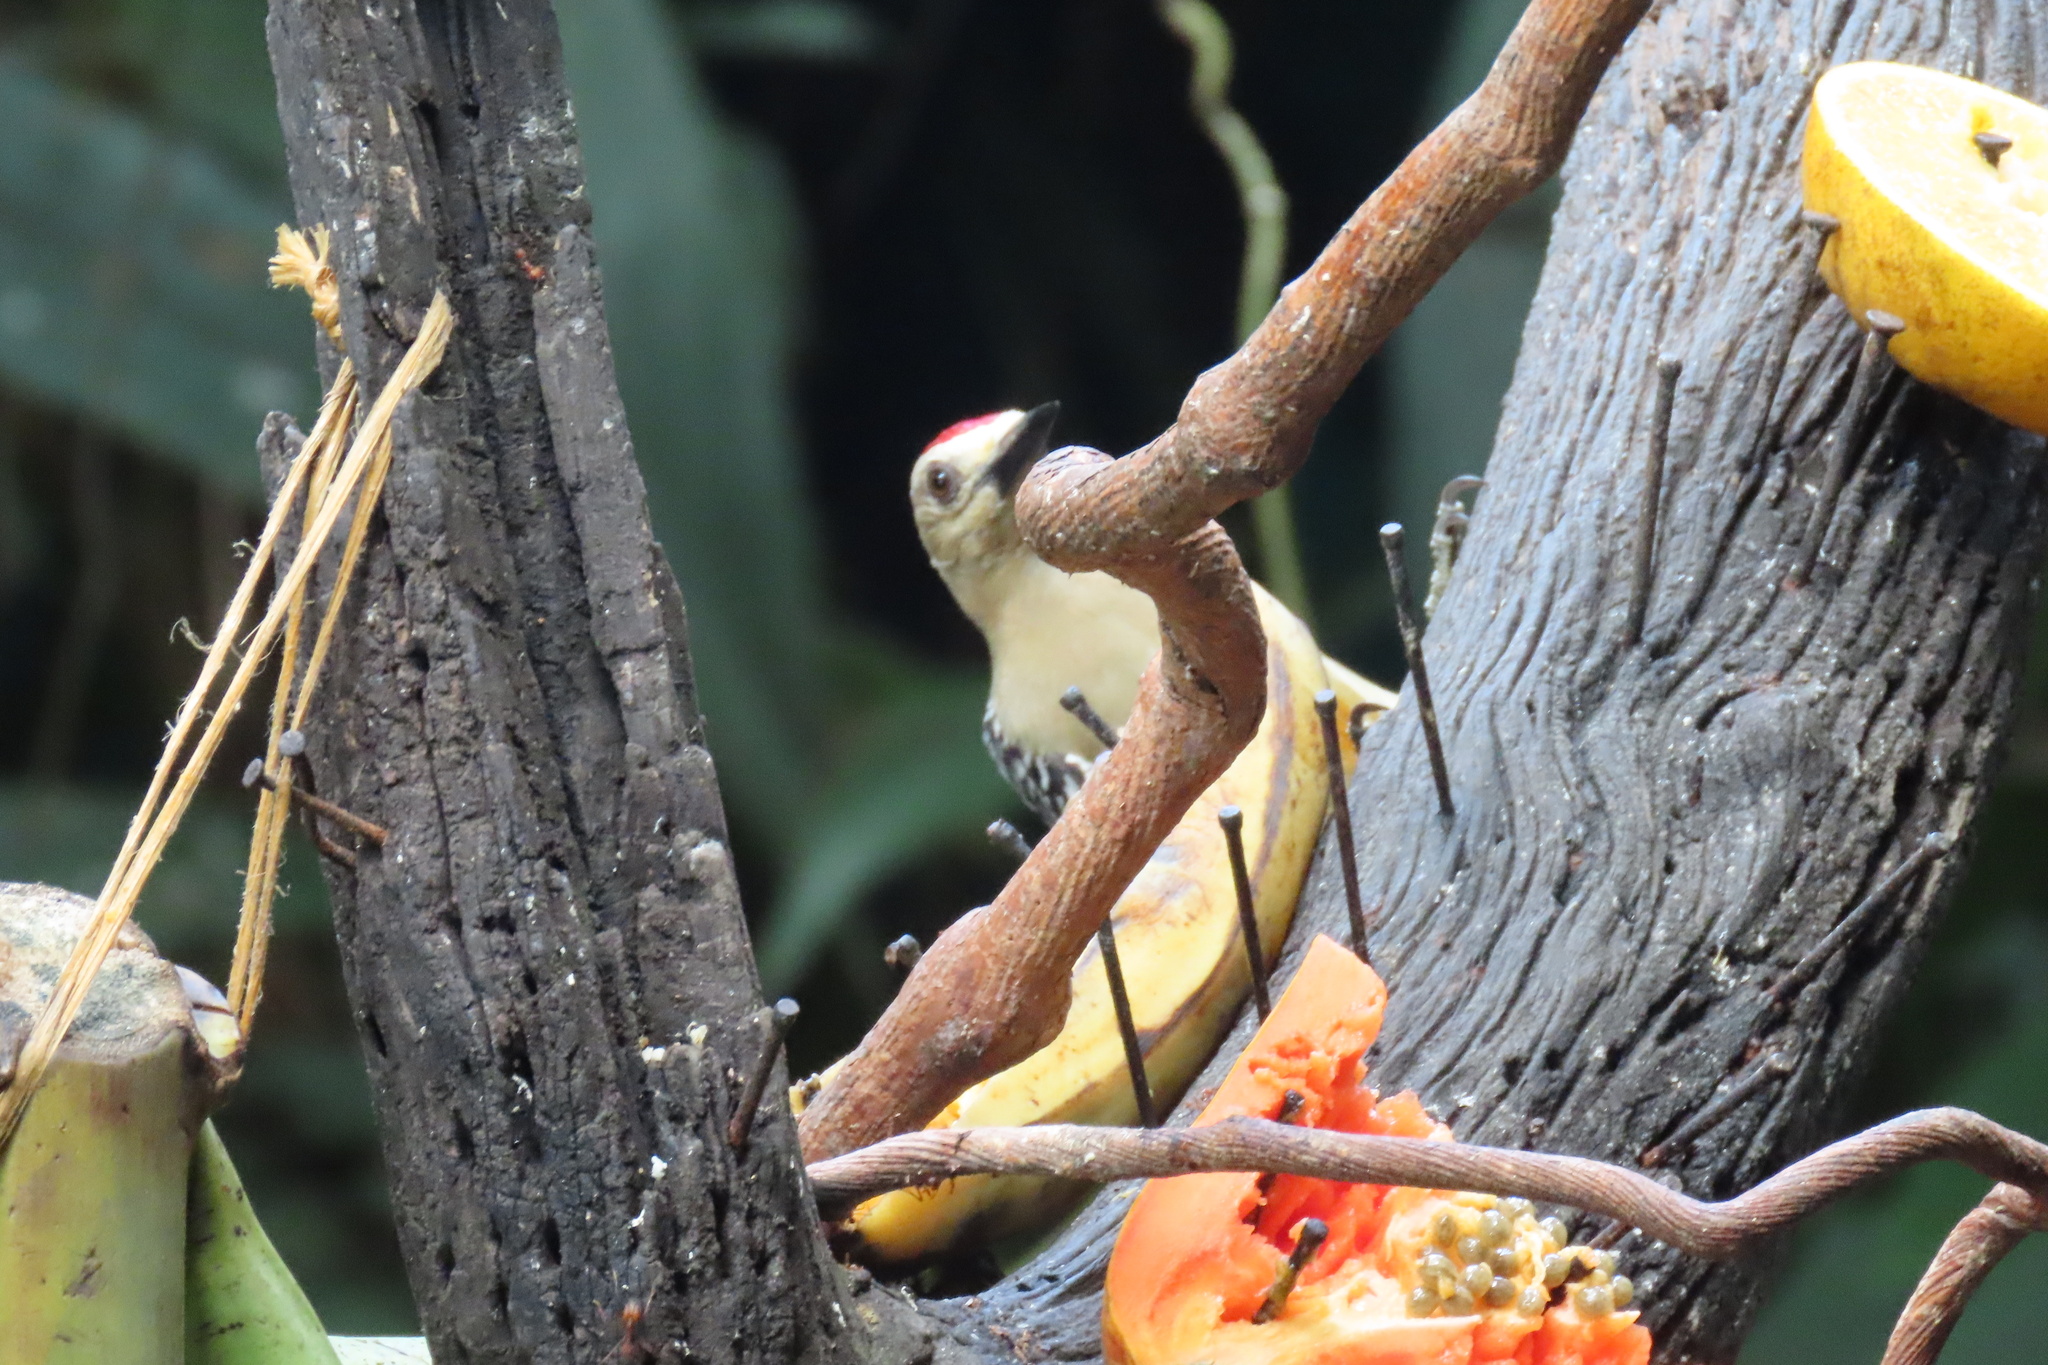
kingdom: Animalia
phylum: Chordata
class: Aves
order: Piciformes
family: Picidae
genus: Melanerpes
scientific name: Melanerpes hoffmannii
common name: Hoffmann's woodpecker
